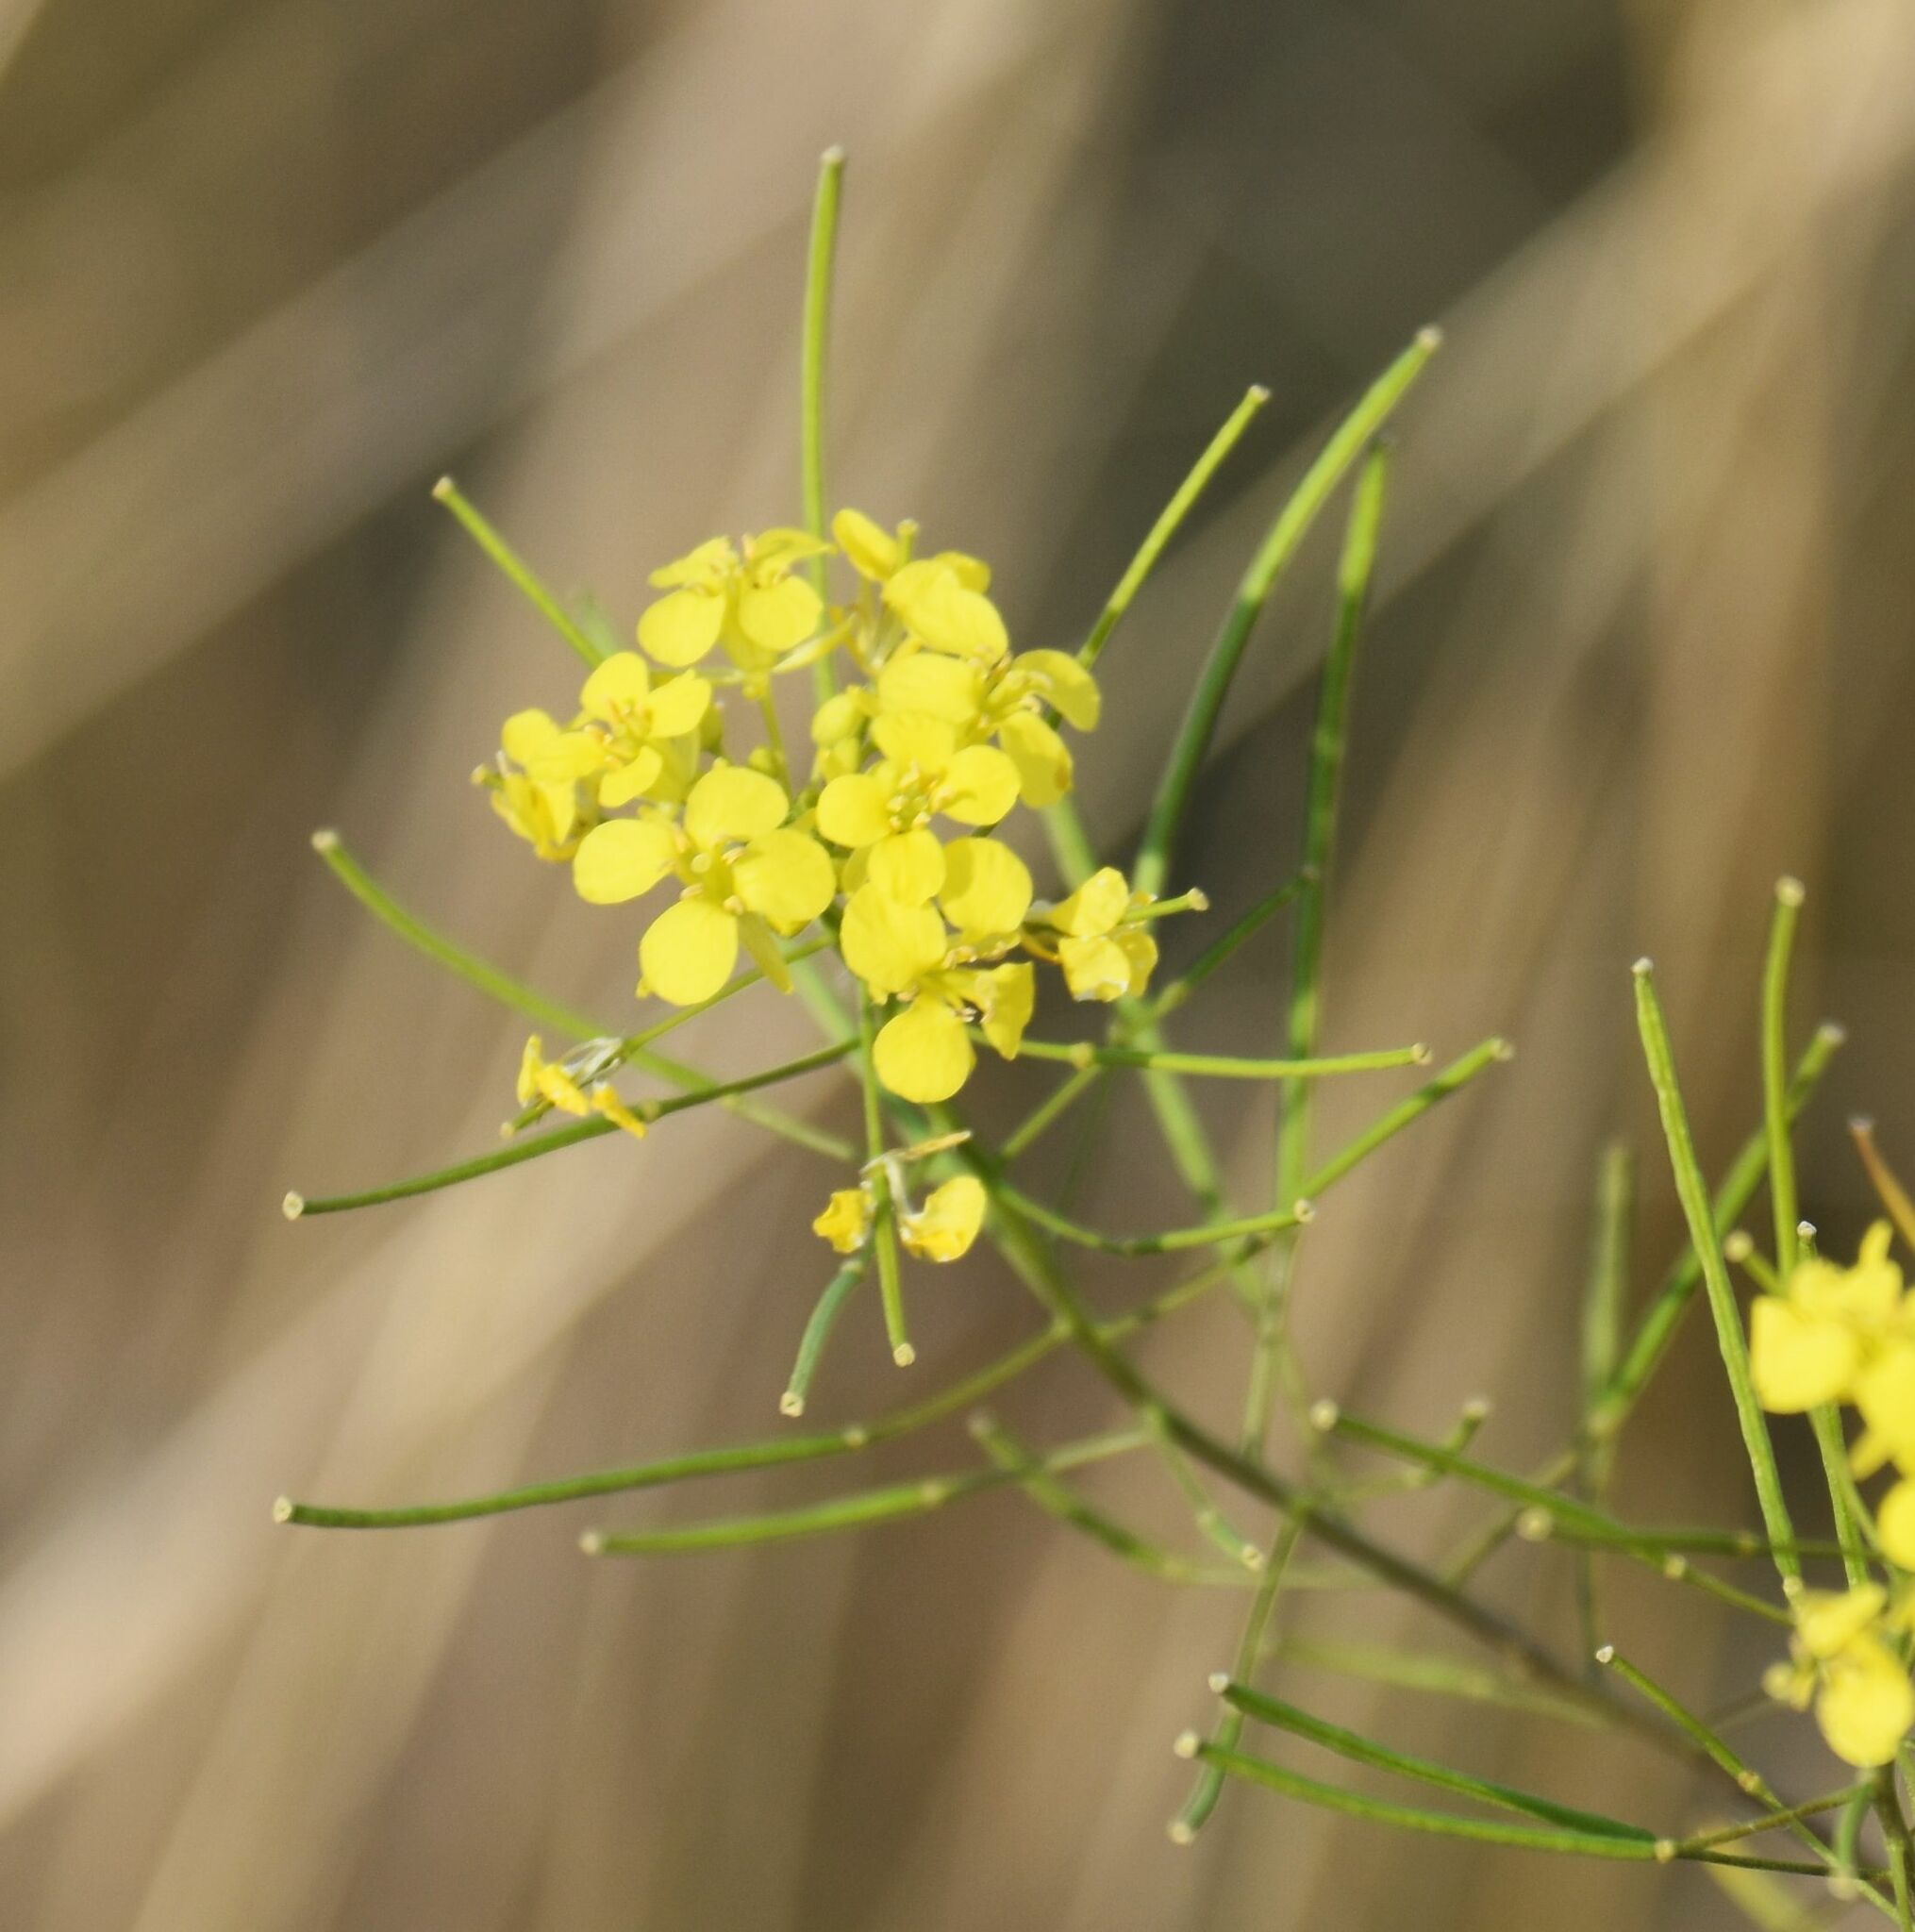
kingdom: Plantae
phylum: Tracheophyta
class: Magnoliopsida
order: Brassicales
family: Brassicaceae
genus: Sisymbrium
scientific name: Sisymbrium loeselii
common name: False london-rocket
